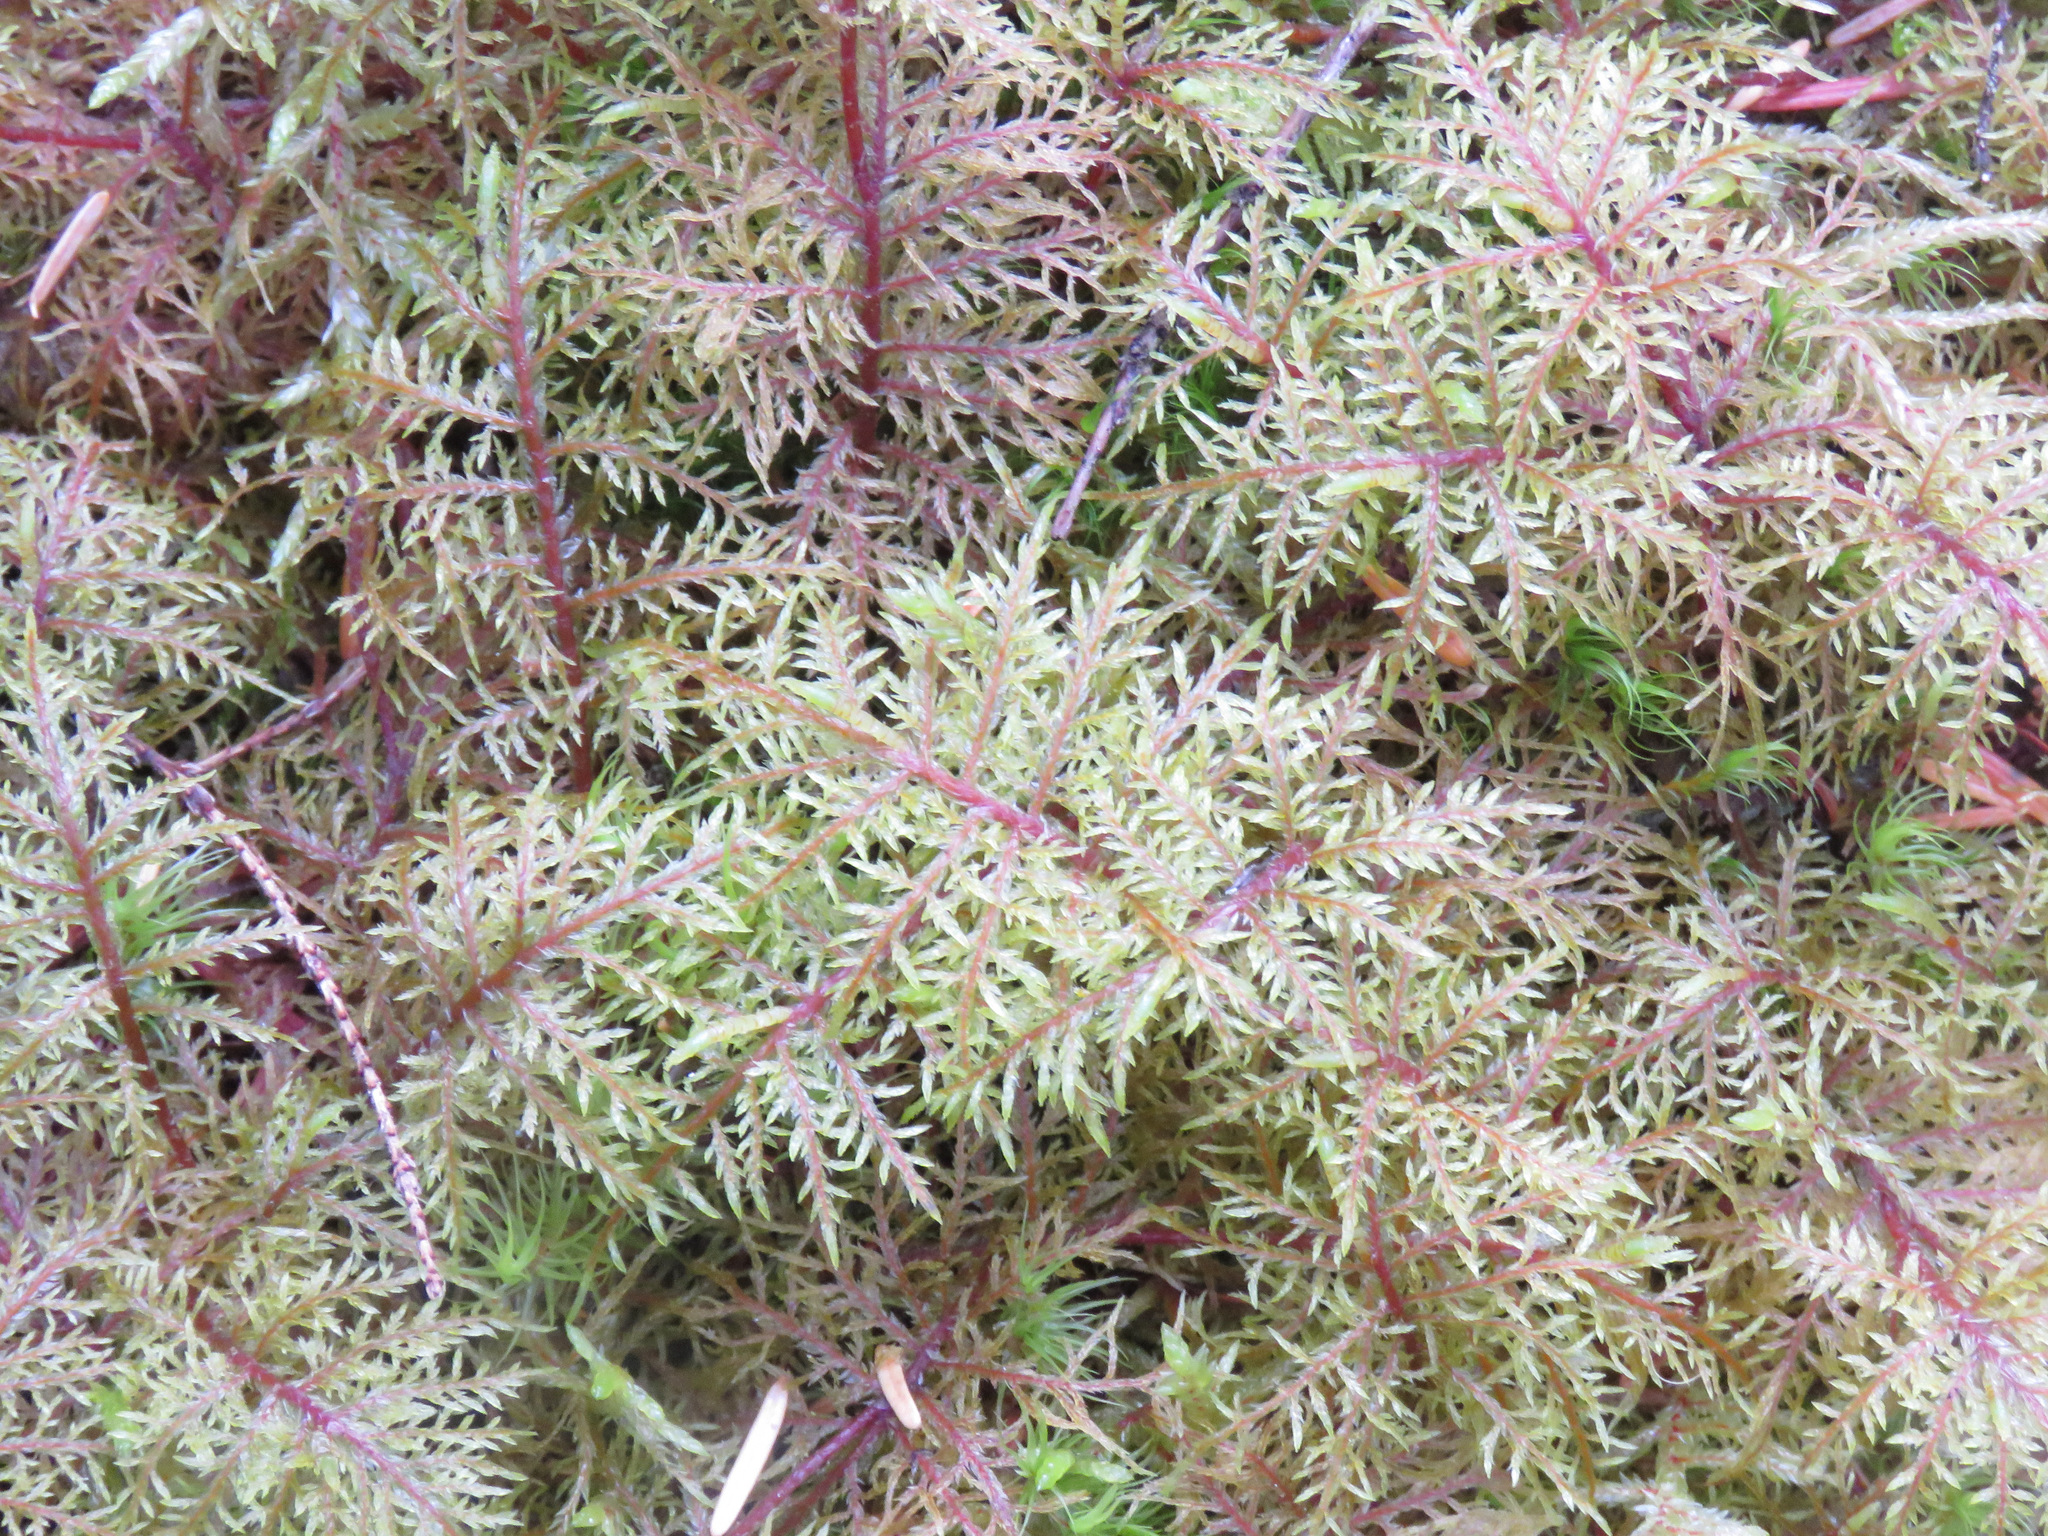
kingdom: Plantae
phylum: Bryophyta
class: Bryopsida
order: Hypnales
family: Hylocomiaceae
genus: Hylocomium
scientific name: Hylocomium splendens
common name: Stairstep moss
